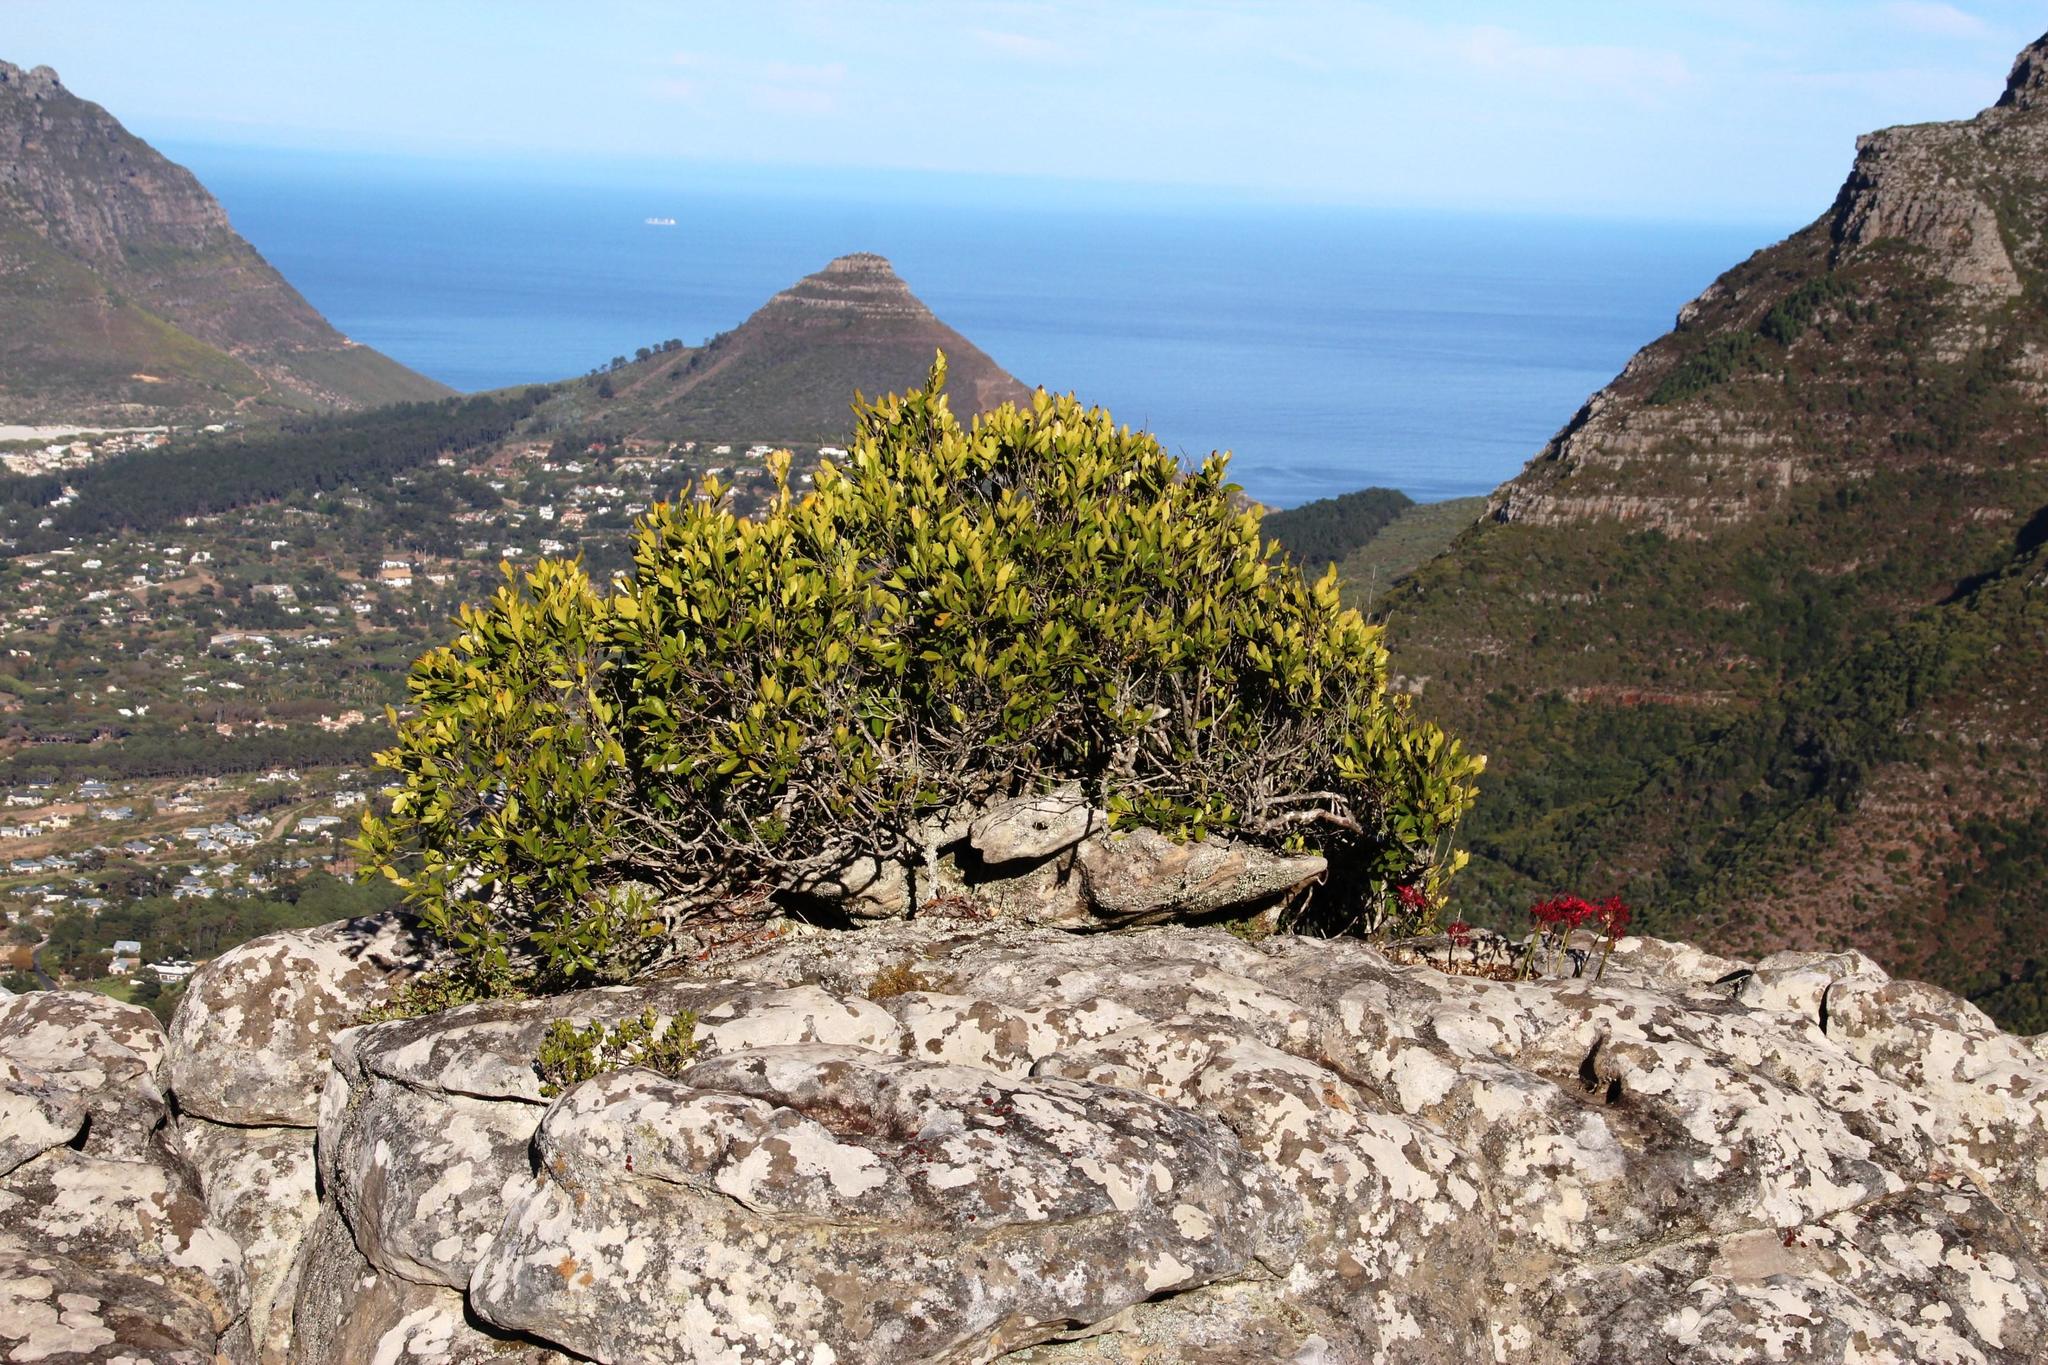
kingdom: Plantae
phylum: Tracheophyta
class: Magnoliopsida
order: Celastrales
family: Celastraceae
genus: Elaeodendron
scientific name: Elaeodendron schinoides
